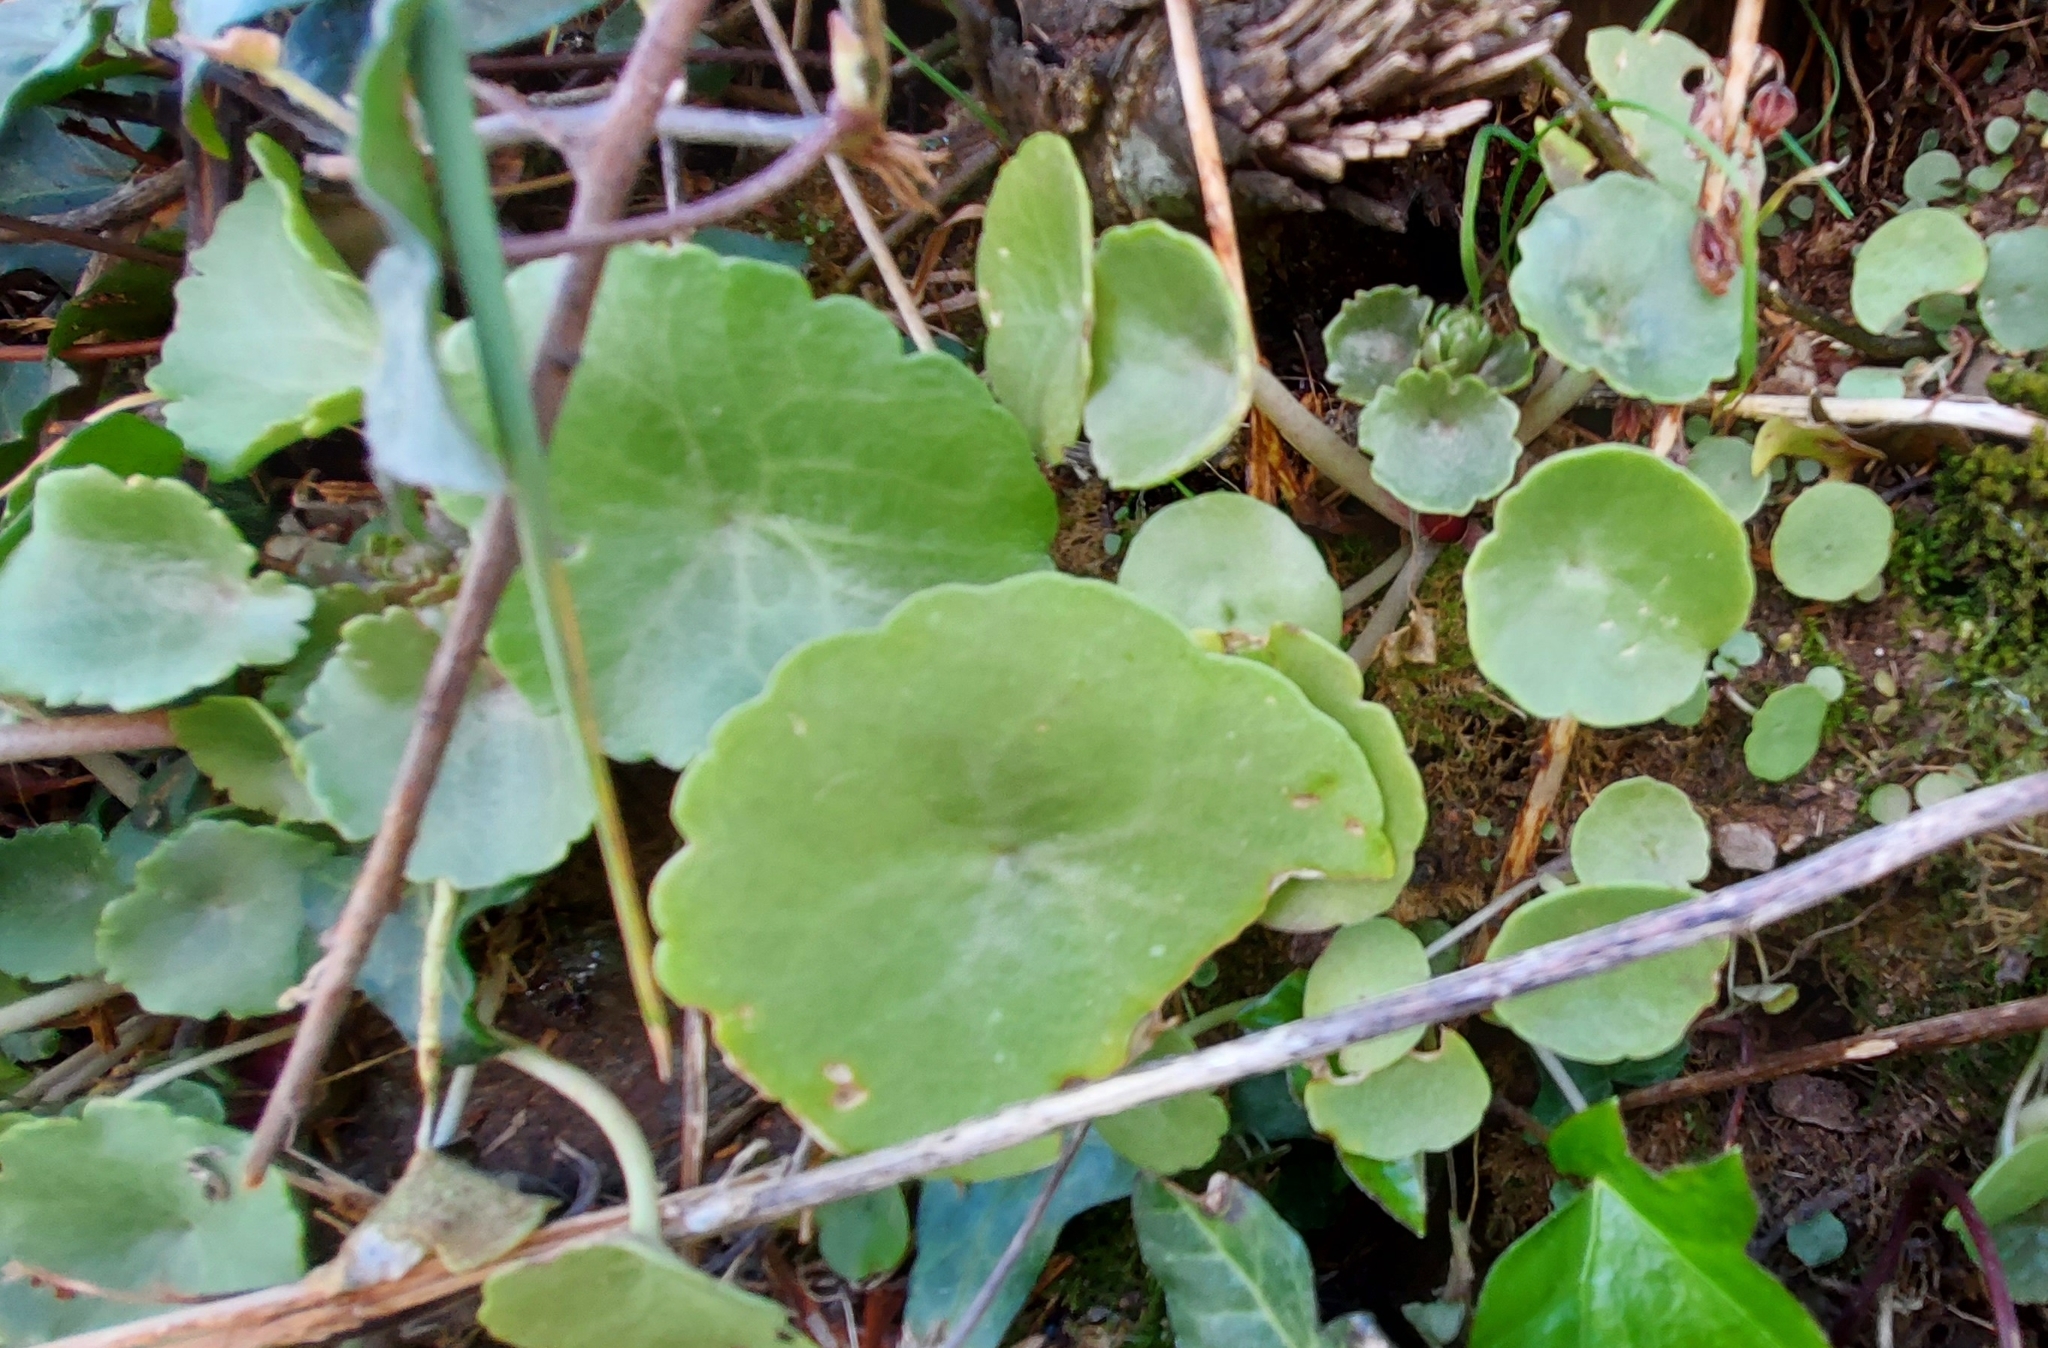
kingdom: Plantae
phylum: Tracheophyta
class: Magnoliopsida
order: Saxifragales
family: Crassulaceae
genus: Umbilicus
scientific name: Umbilicus rupestris
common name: Navelwort
